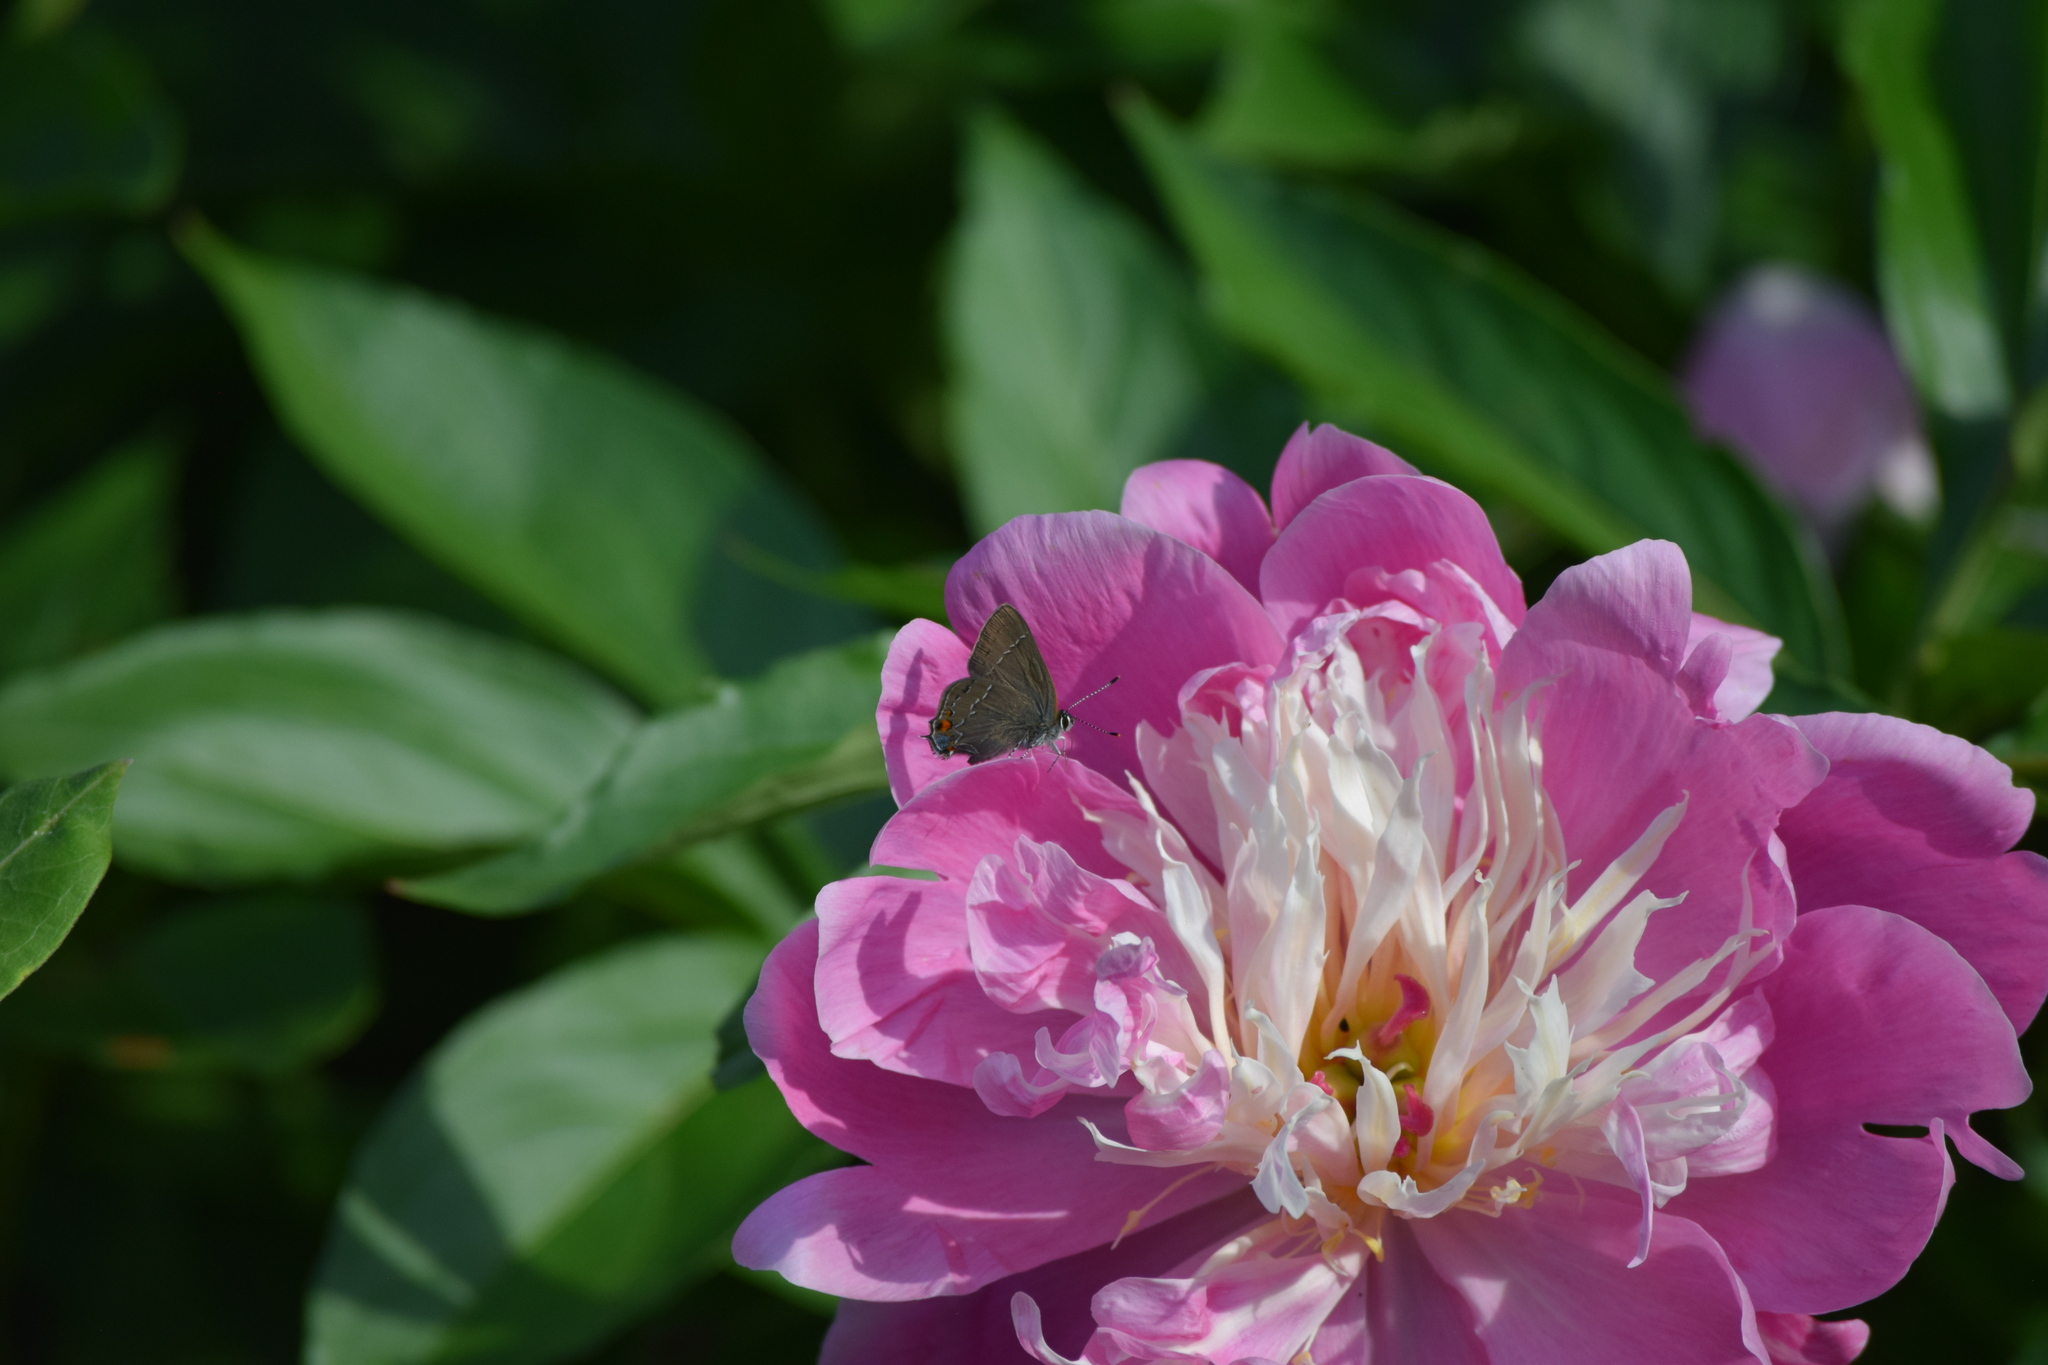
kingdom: Animalia
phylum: Arthropoda
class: Insecta
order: Lepidoptera
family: Lycaenidae
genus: Fixsenia
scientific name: Fixsenia favonius
